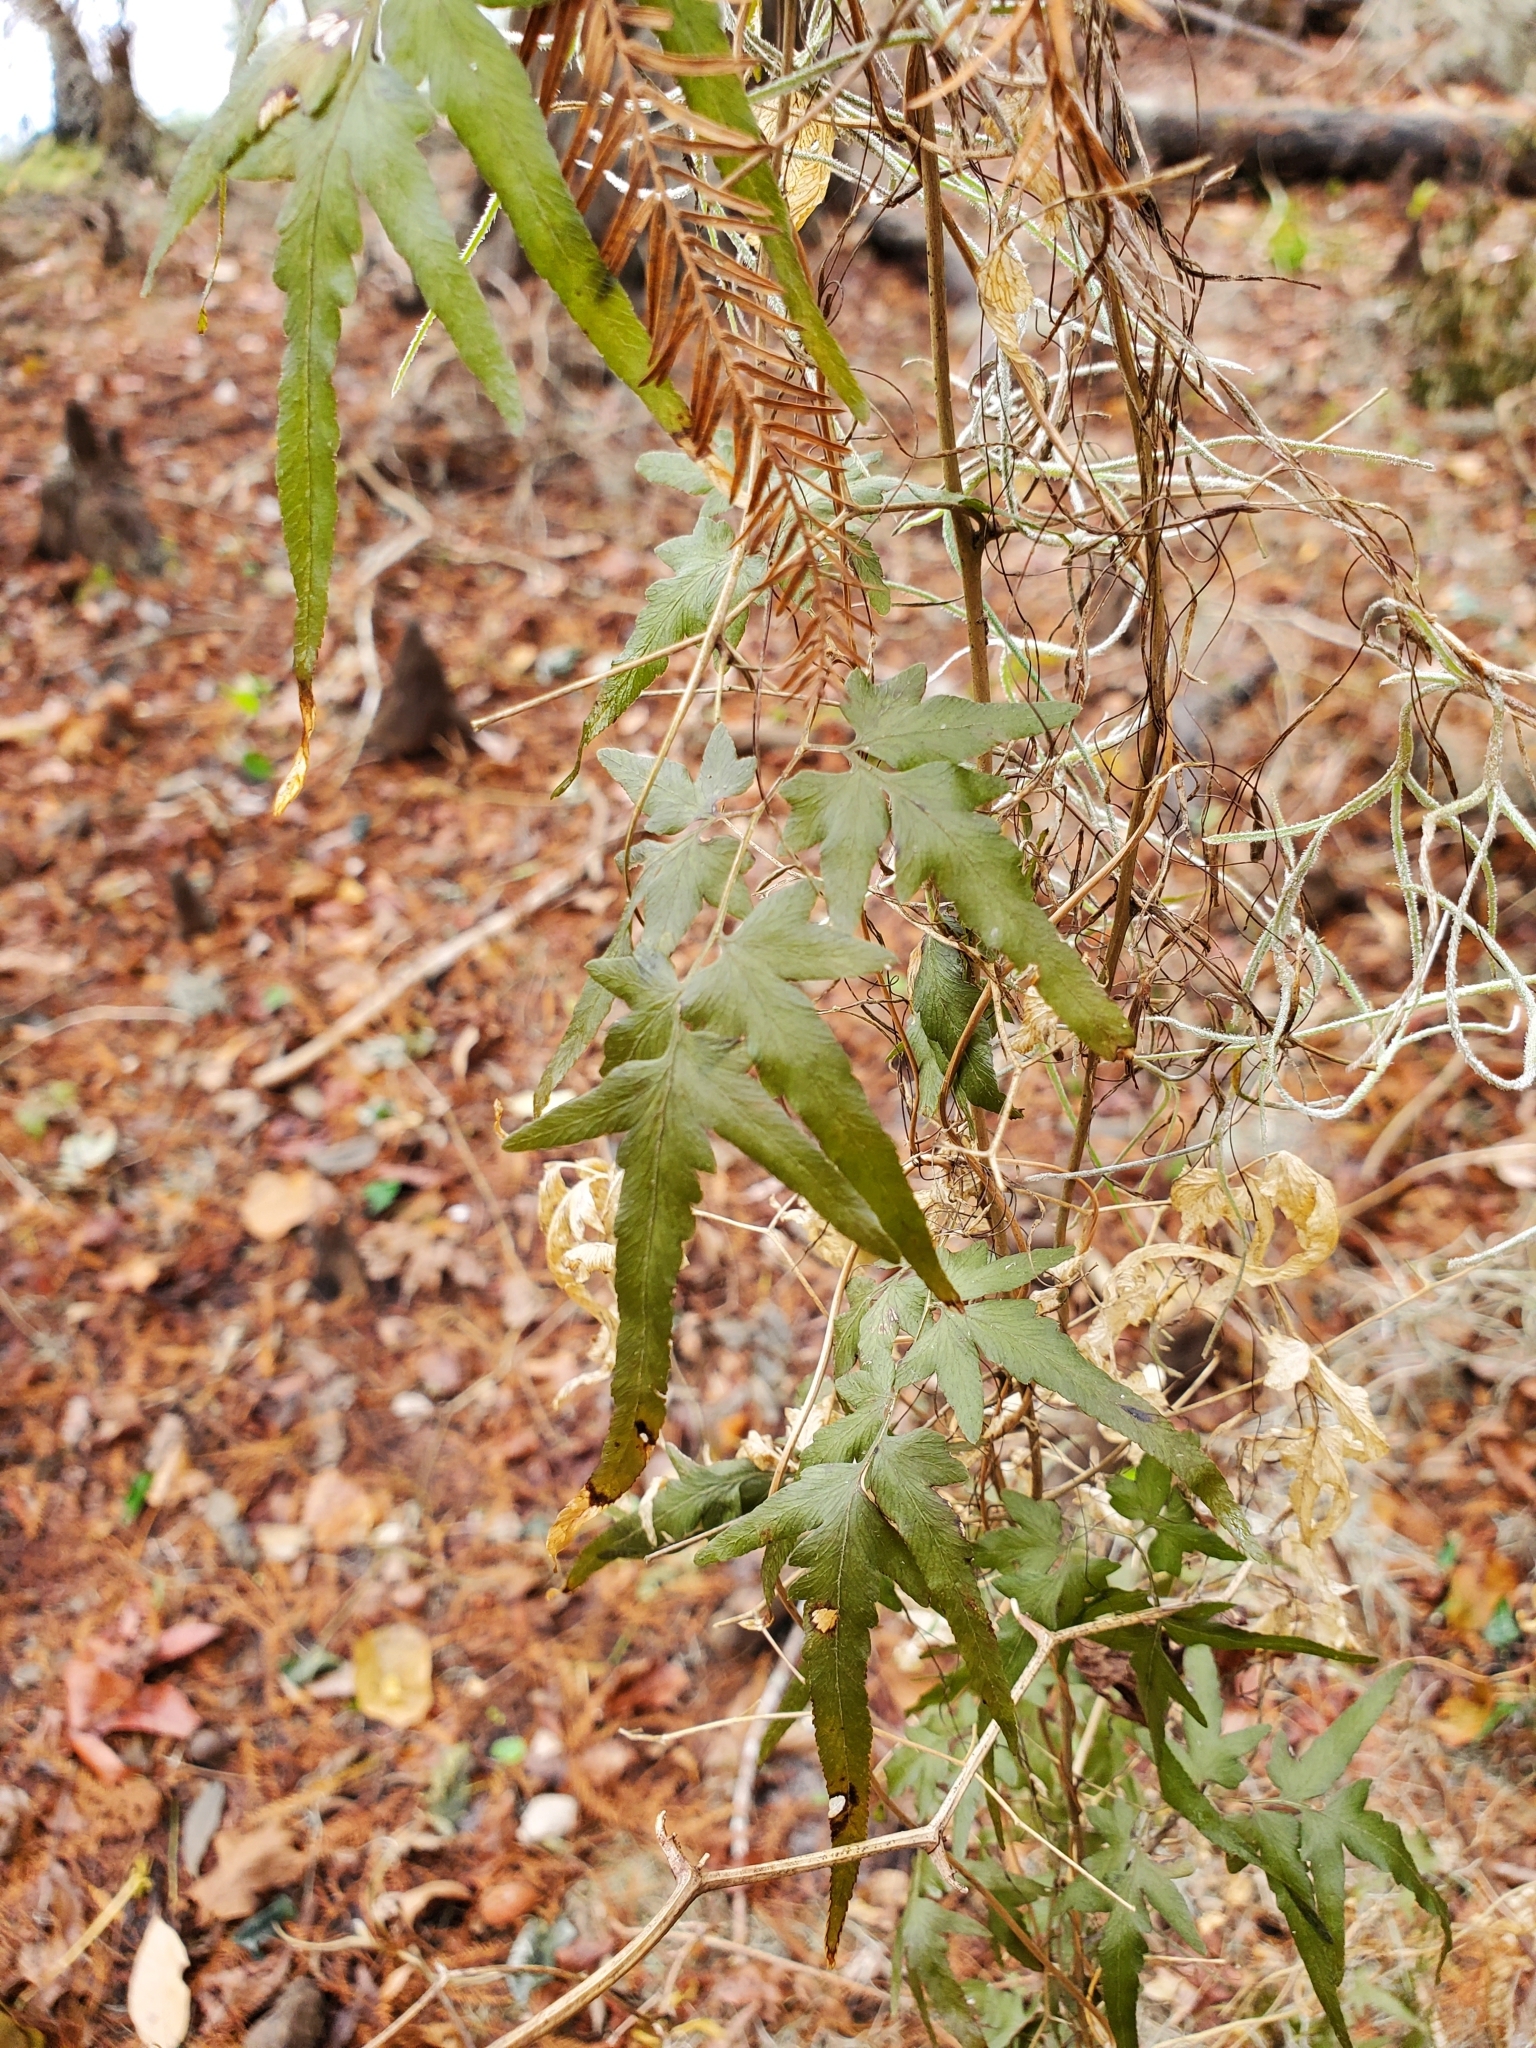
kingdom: Plantae
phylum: Tracheophyta
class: Polypodiopsida
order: Schizaeales
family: Lygodiaceae
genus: Lygodium
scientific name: Lygodium japonicum
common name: Japanese climbing fern
